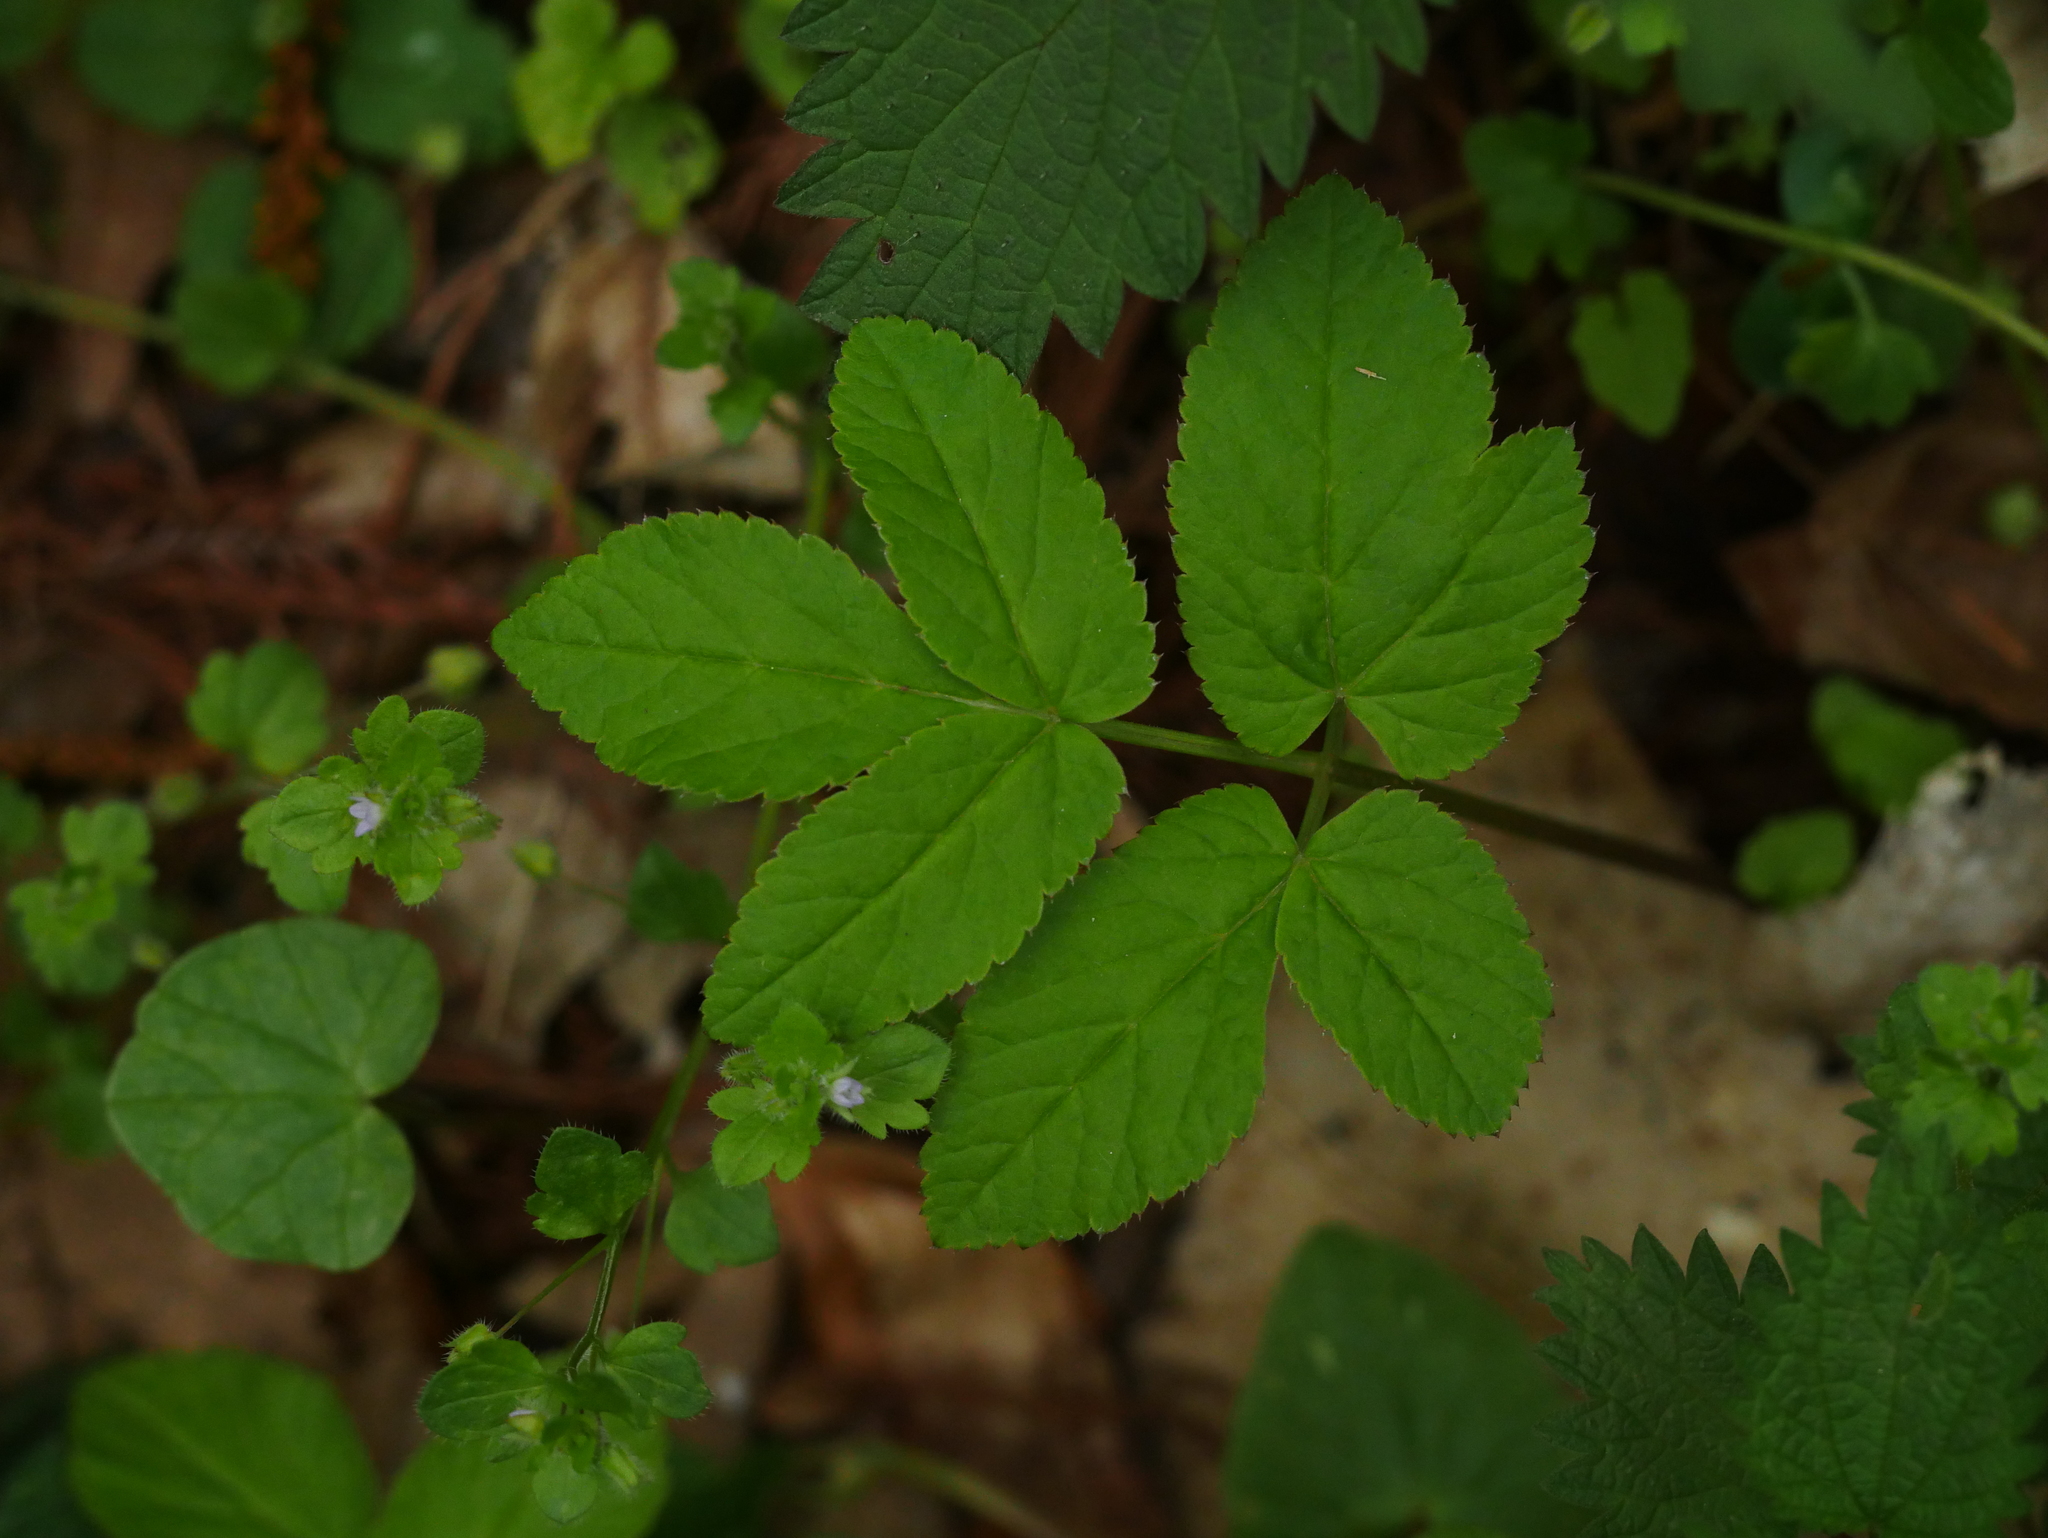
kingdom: Plantae
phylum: Tracheophyta
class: Magnoliopsida
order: Apiales
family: Apiaceae
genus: Aegopodium
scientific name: Aegopodium podagraria
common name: Ground-elder
